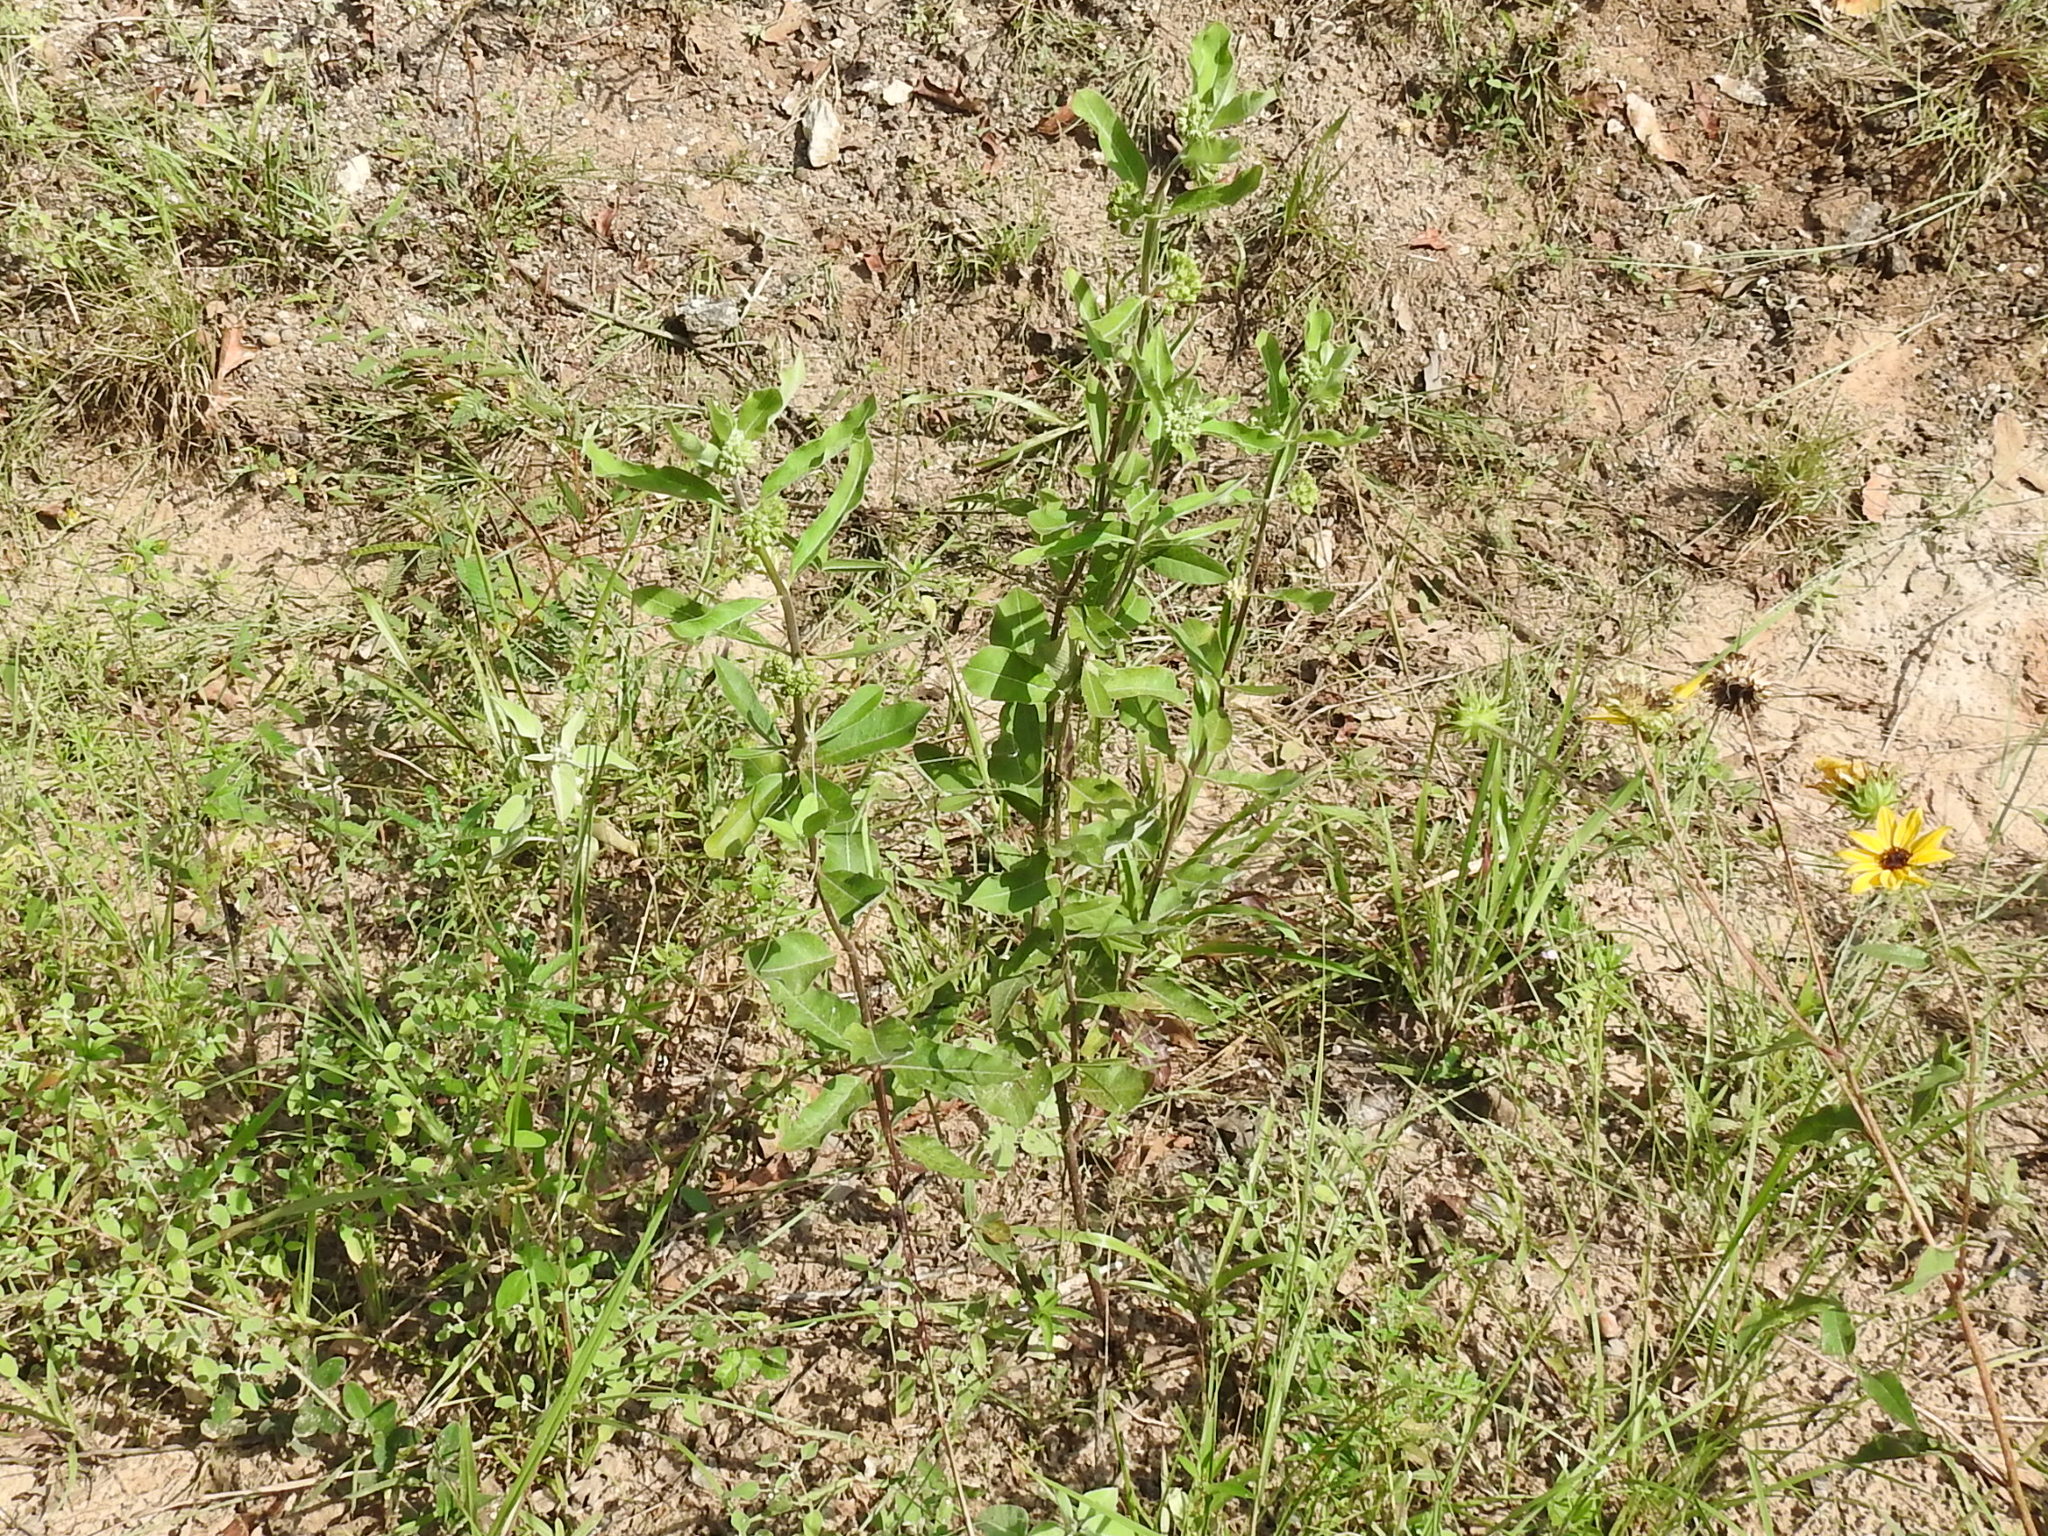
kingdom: Plantae
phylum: Tracheophyta
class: Magnoliopsida
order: Gentianales
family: Apocynaceae
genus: Asclepias
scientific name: Asclepias tomentosa
